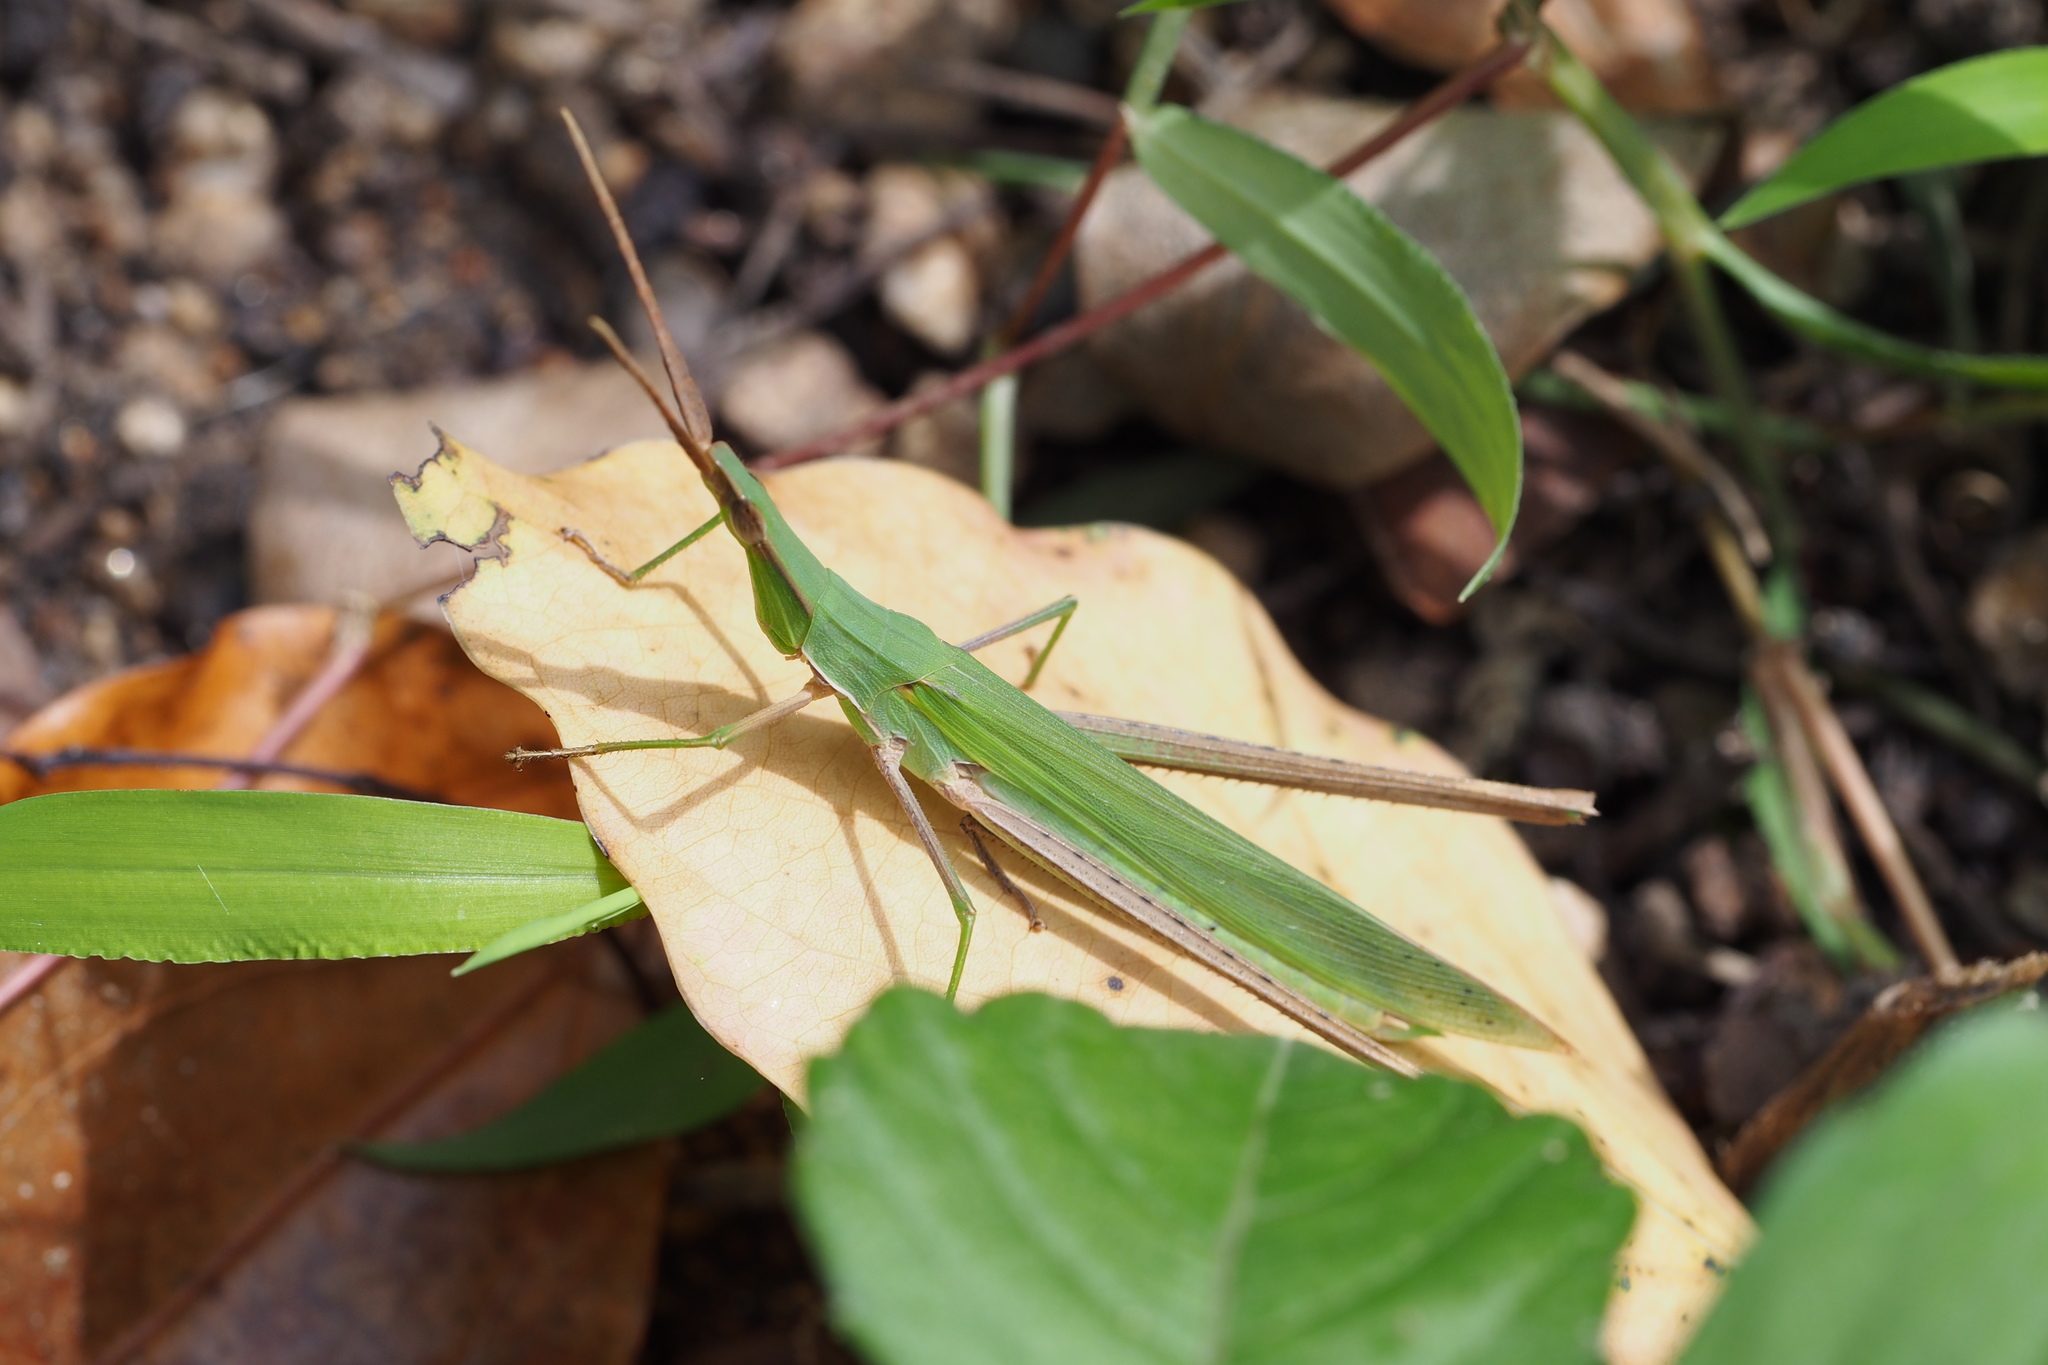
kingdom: Animalia
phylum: Arthropoda
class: Insecta
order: Orthoptera
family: Acrididae
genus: Acrida
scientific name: Acrida cinerea
